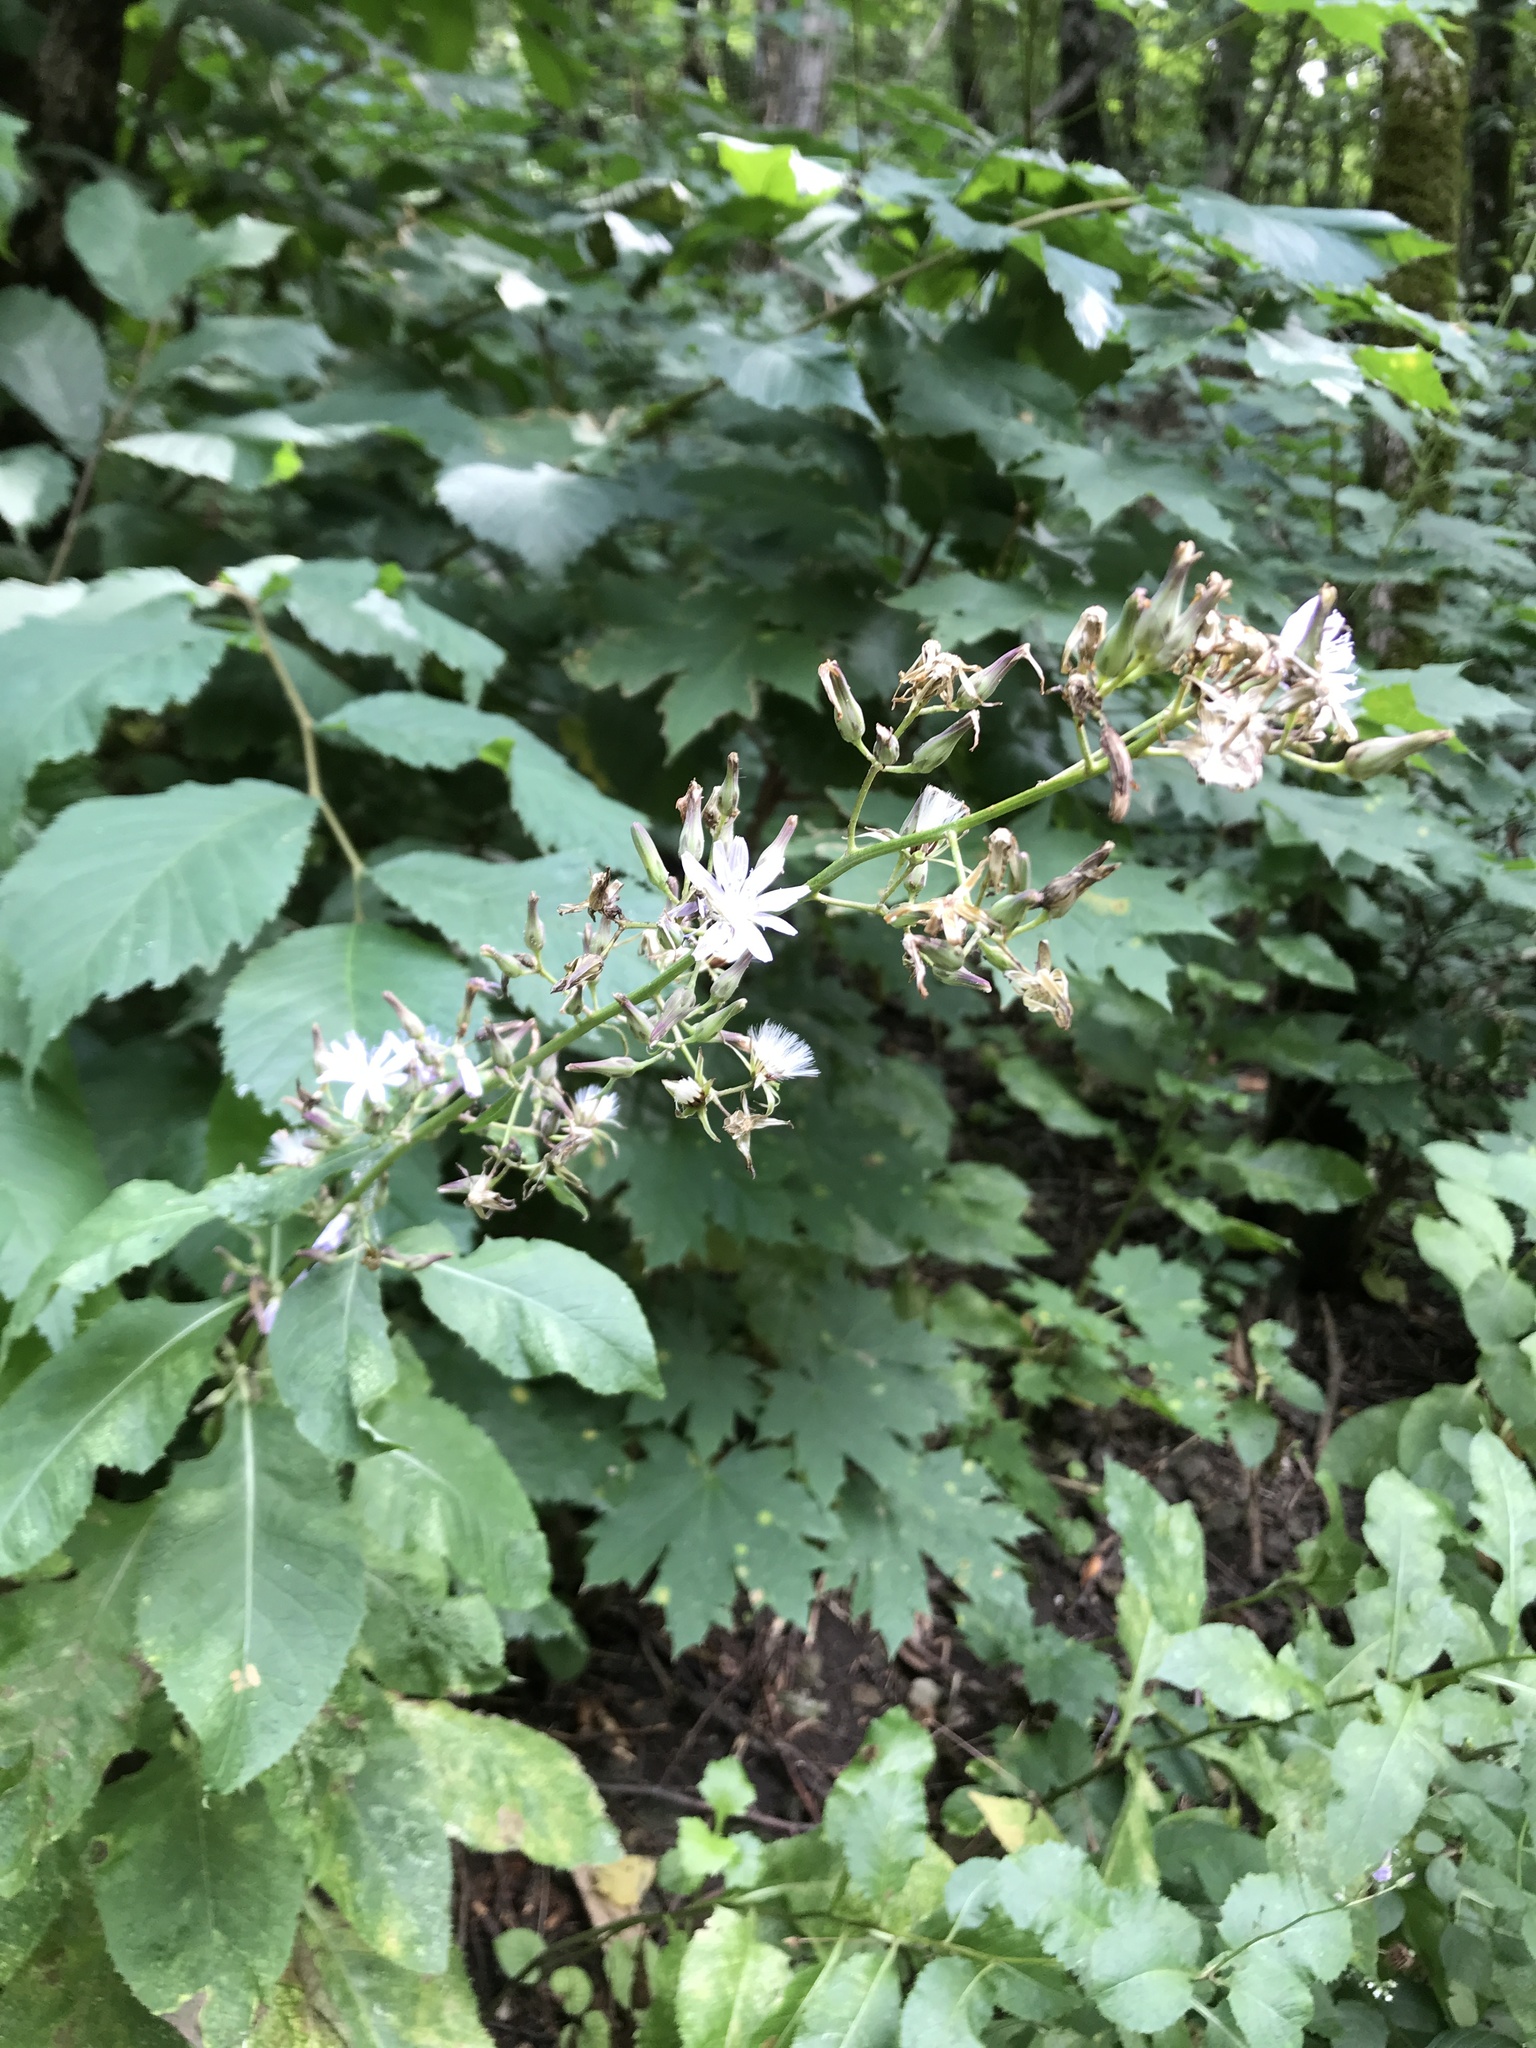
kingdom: Plantae
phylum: Tracheophyta
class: Magnoliopsida
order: Asterales
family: Asteraceae
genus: Cicerbita
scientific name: Cicerbita prenanthoides
